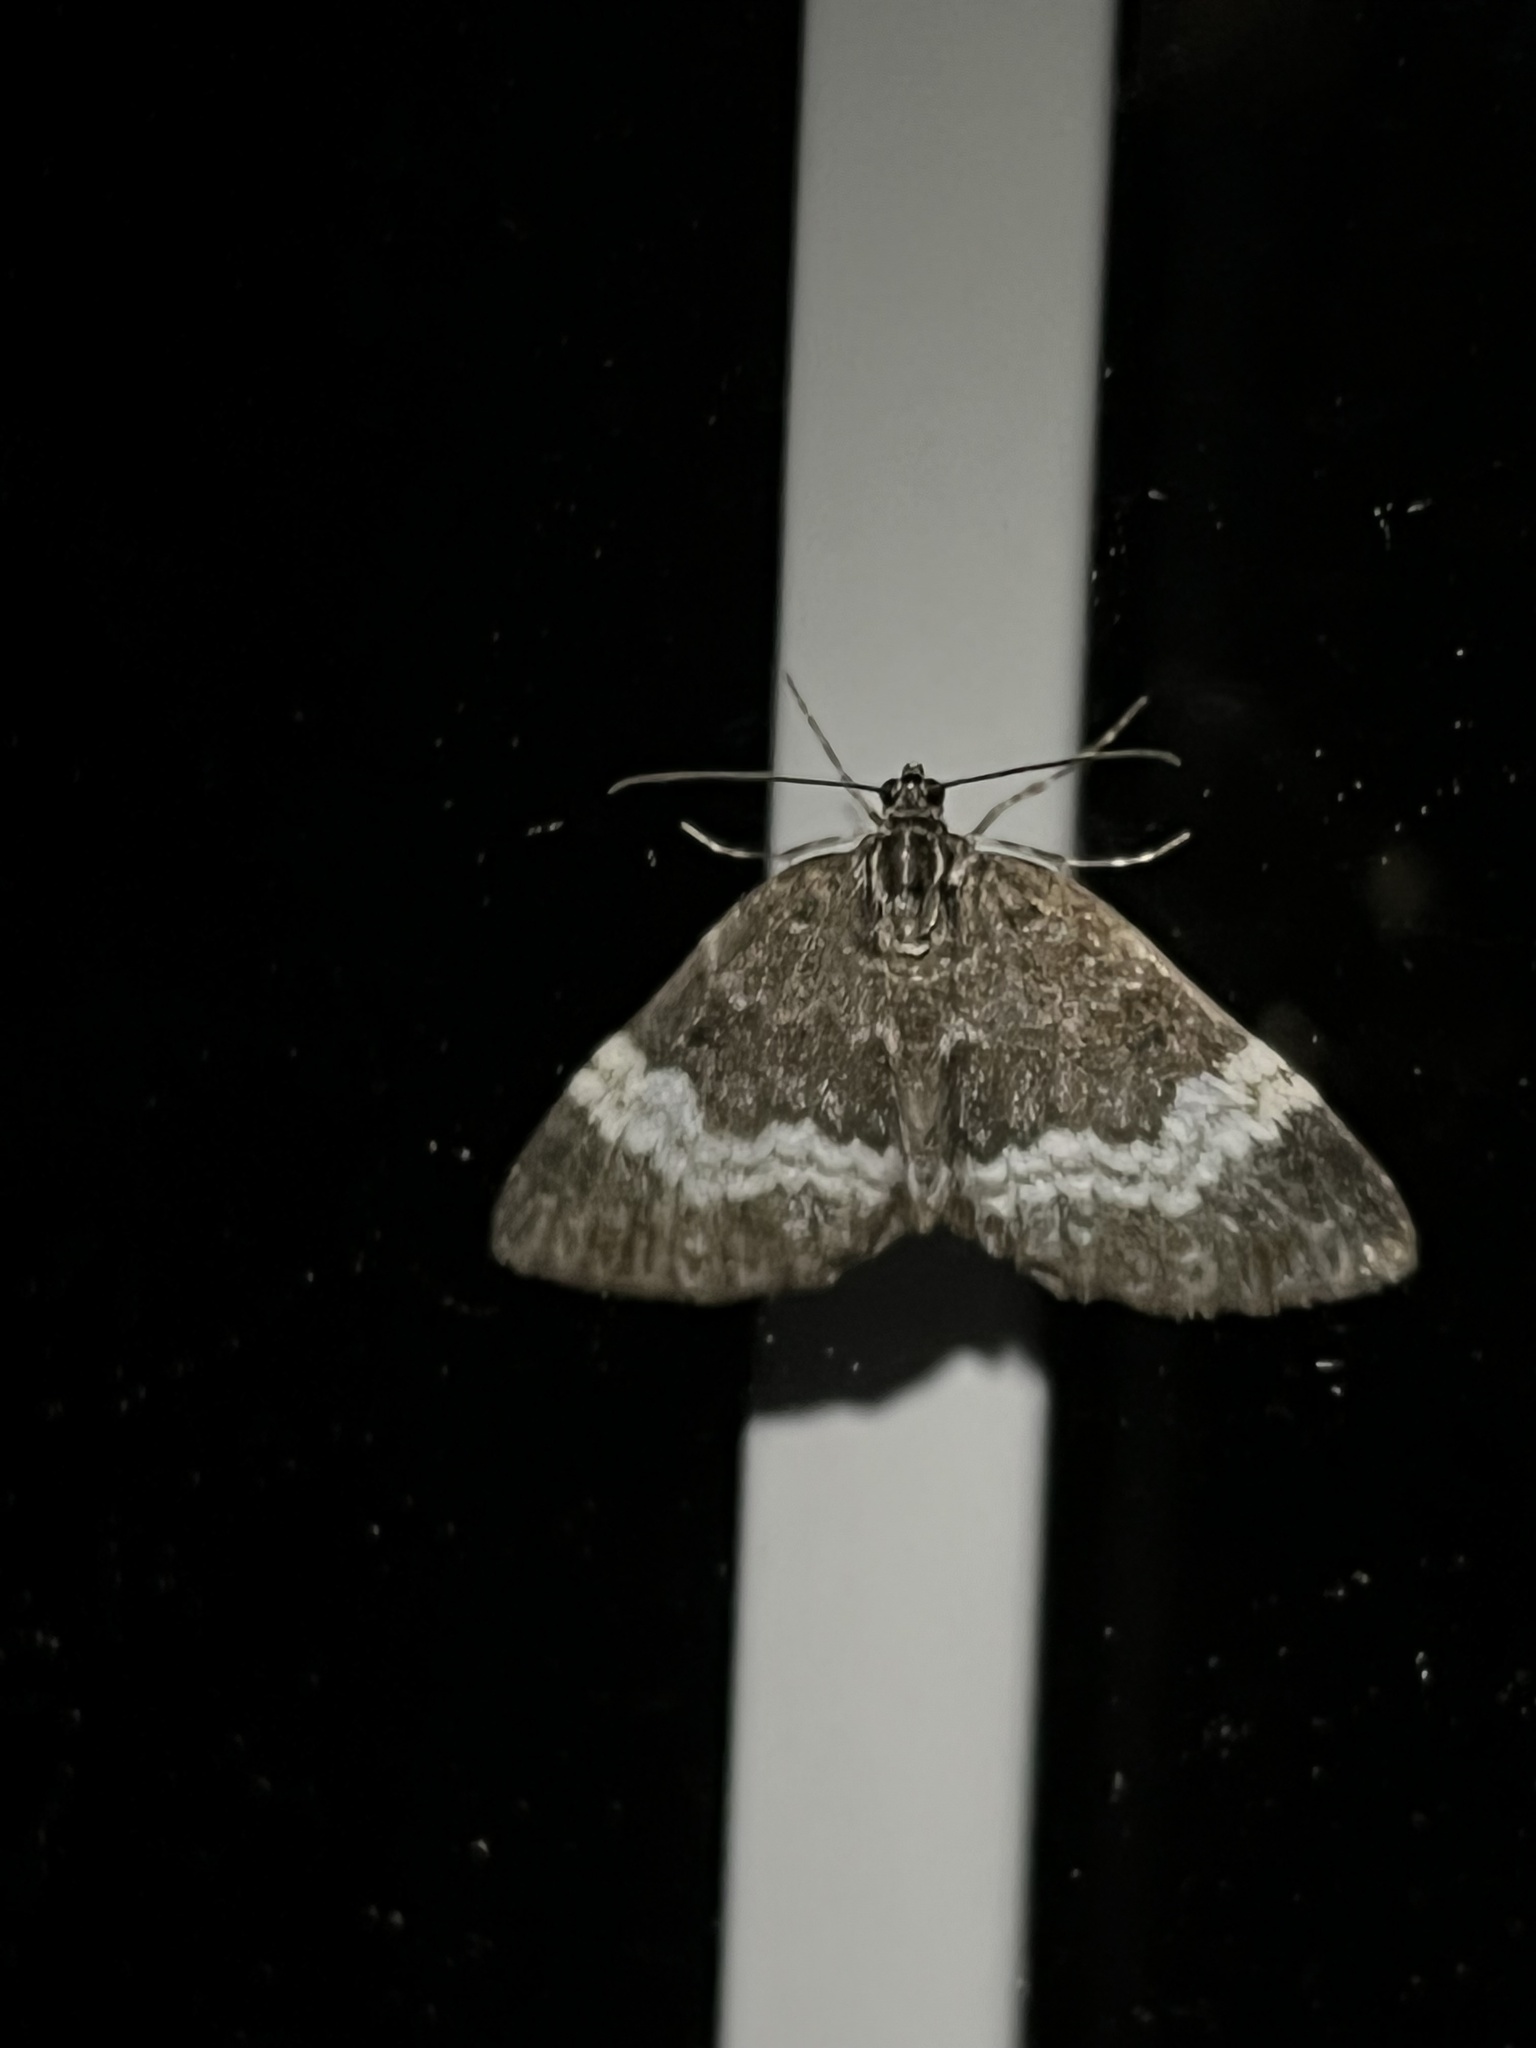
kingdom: Animalia
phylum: Arthropoda
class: Insecta
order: Lepidoptera
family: Geometridae
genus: Spargania
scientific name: Spargania luctuata
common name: White-banded carpet
